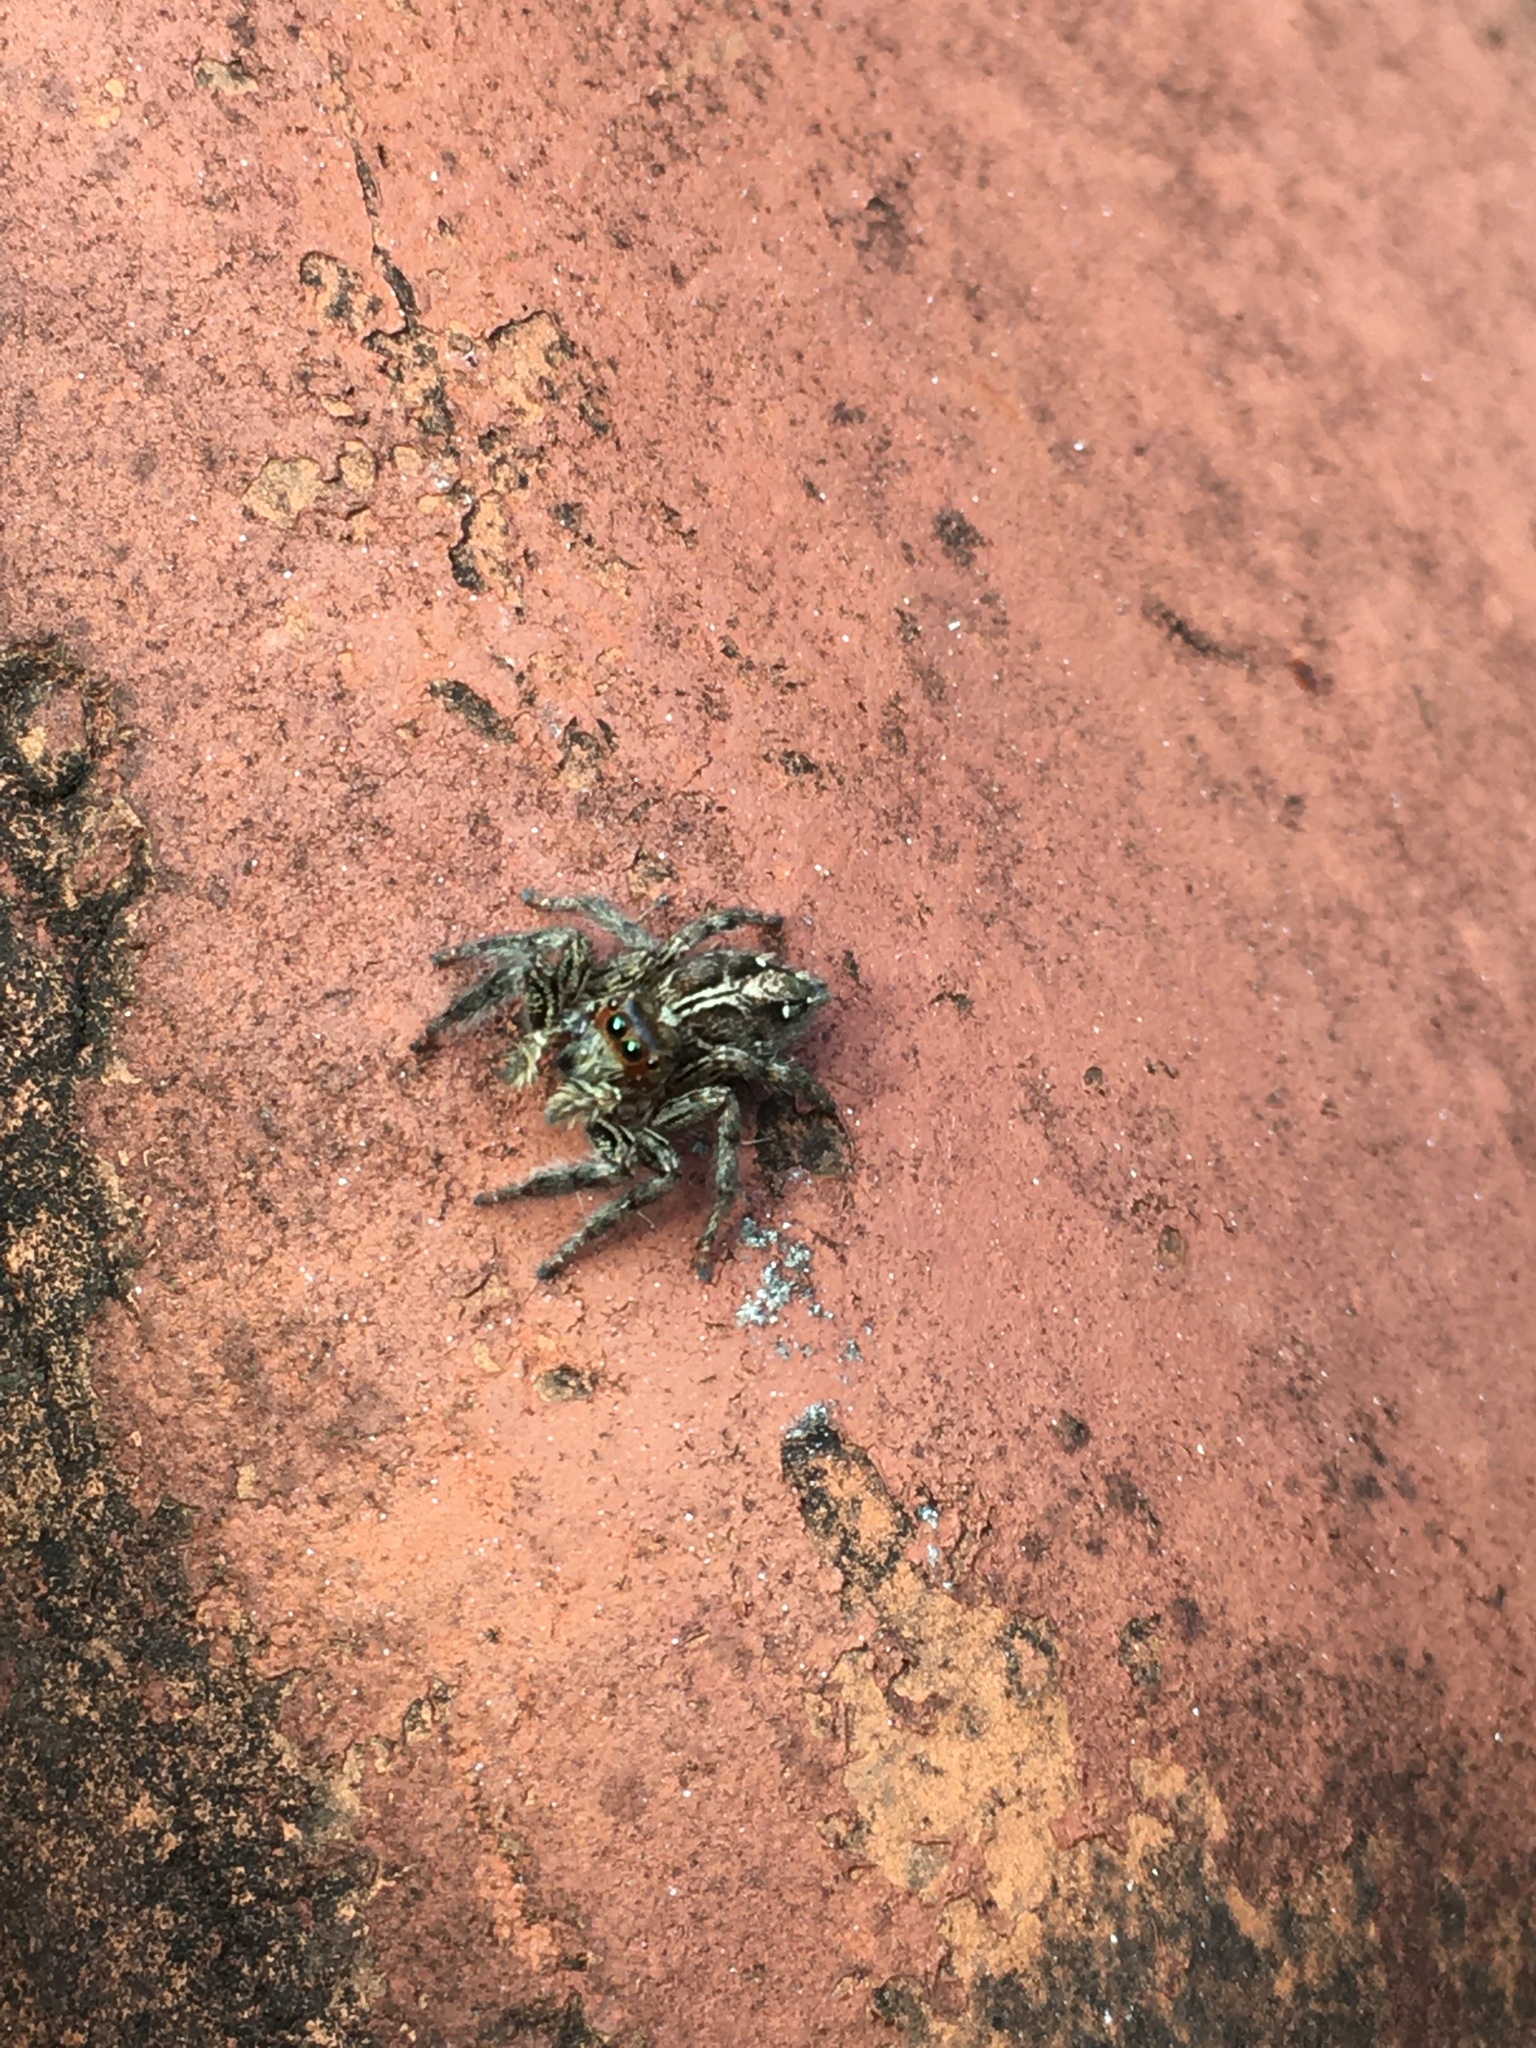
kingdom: Animalia
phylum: Arthropoda
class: Arachnida
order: Araneae
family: Salticidae
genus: Plexippus
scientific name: Plexippus paykulli
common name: Pantropical jumper
